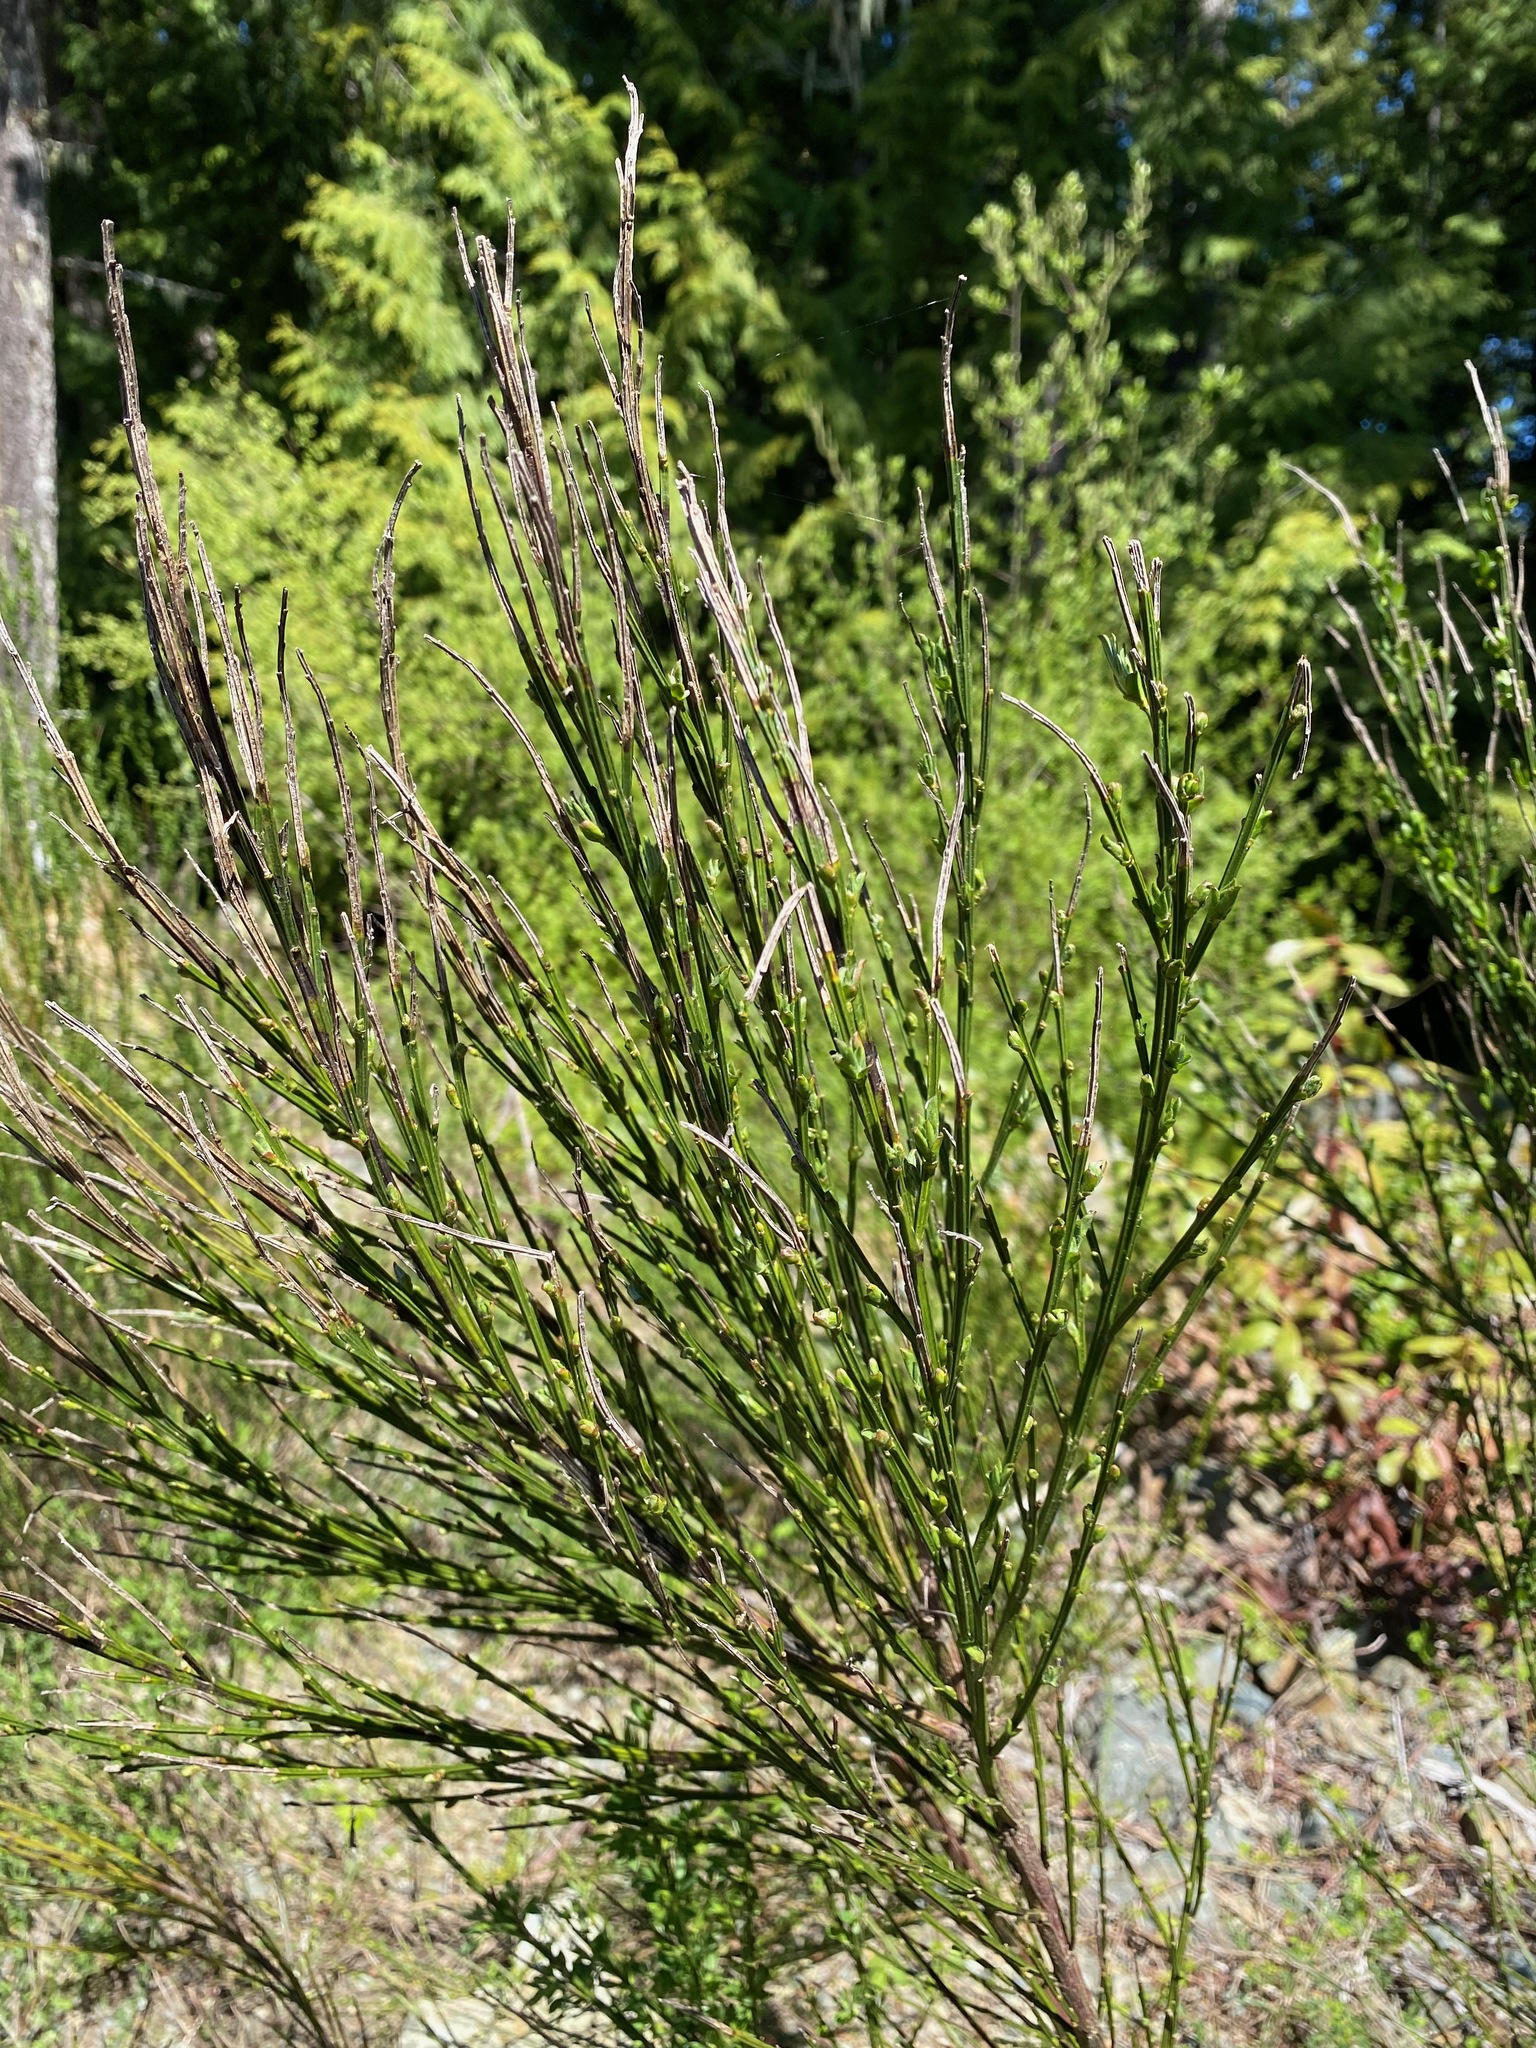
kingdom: Plantae
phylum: Tracheophyta
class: Magnoliopsida
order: Fabales
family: Fabaceae
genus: Cytisus
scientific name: Cytisus scoparius
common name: Scotch broom
